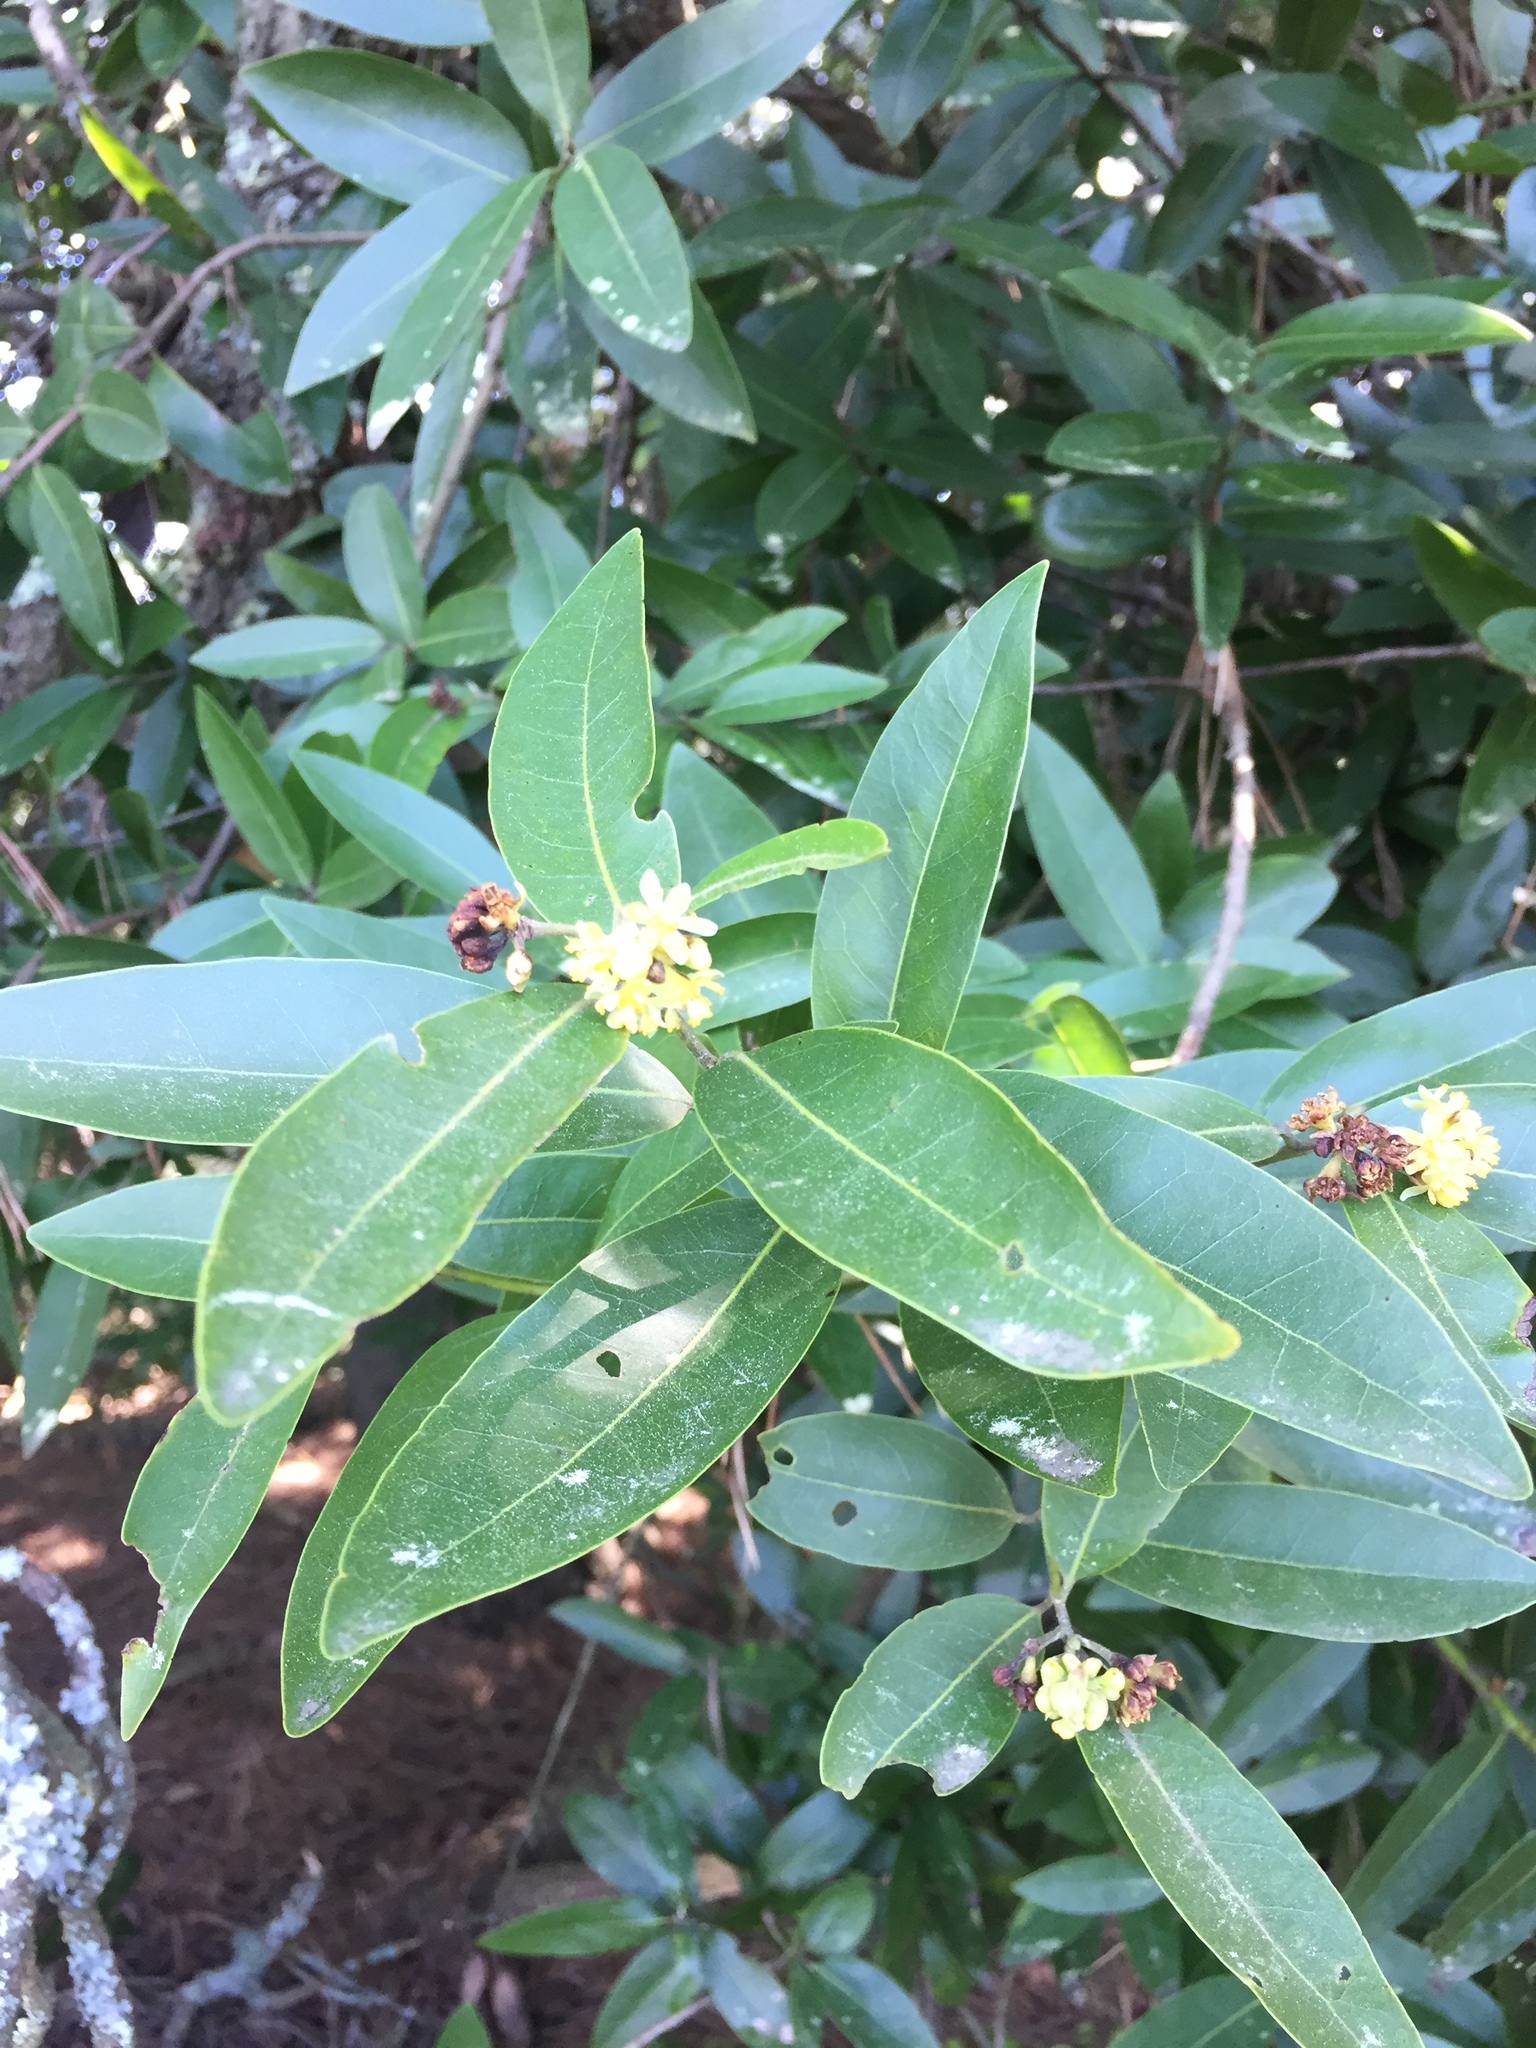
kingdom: Plantae
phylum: Tracheophyta
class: Magnoliopsida
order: Laurales
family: Lauraceae
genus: Umbellularia
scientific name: Umbellularia californica
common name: California bay
